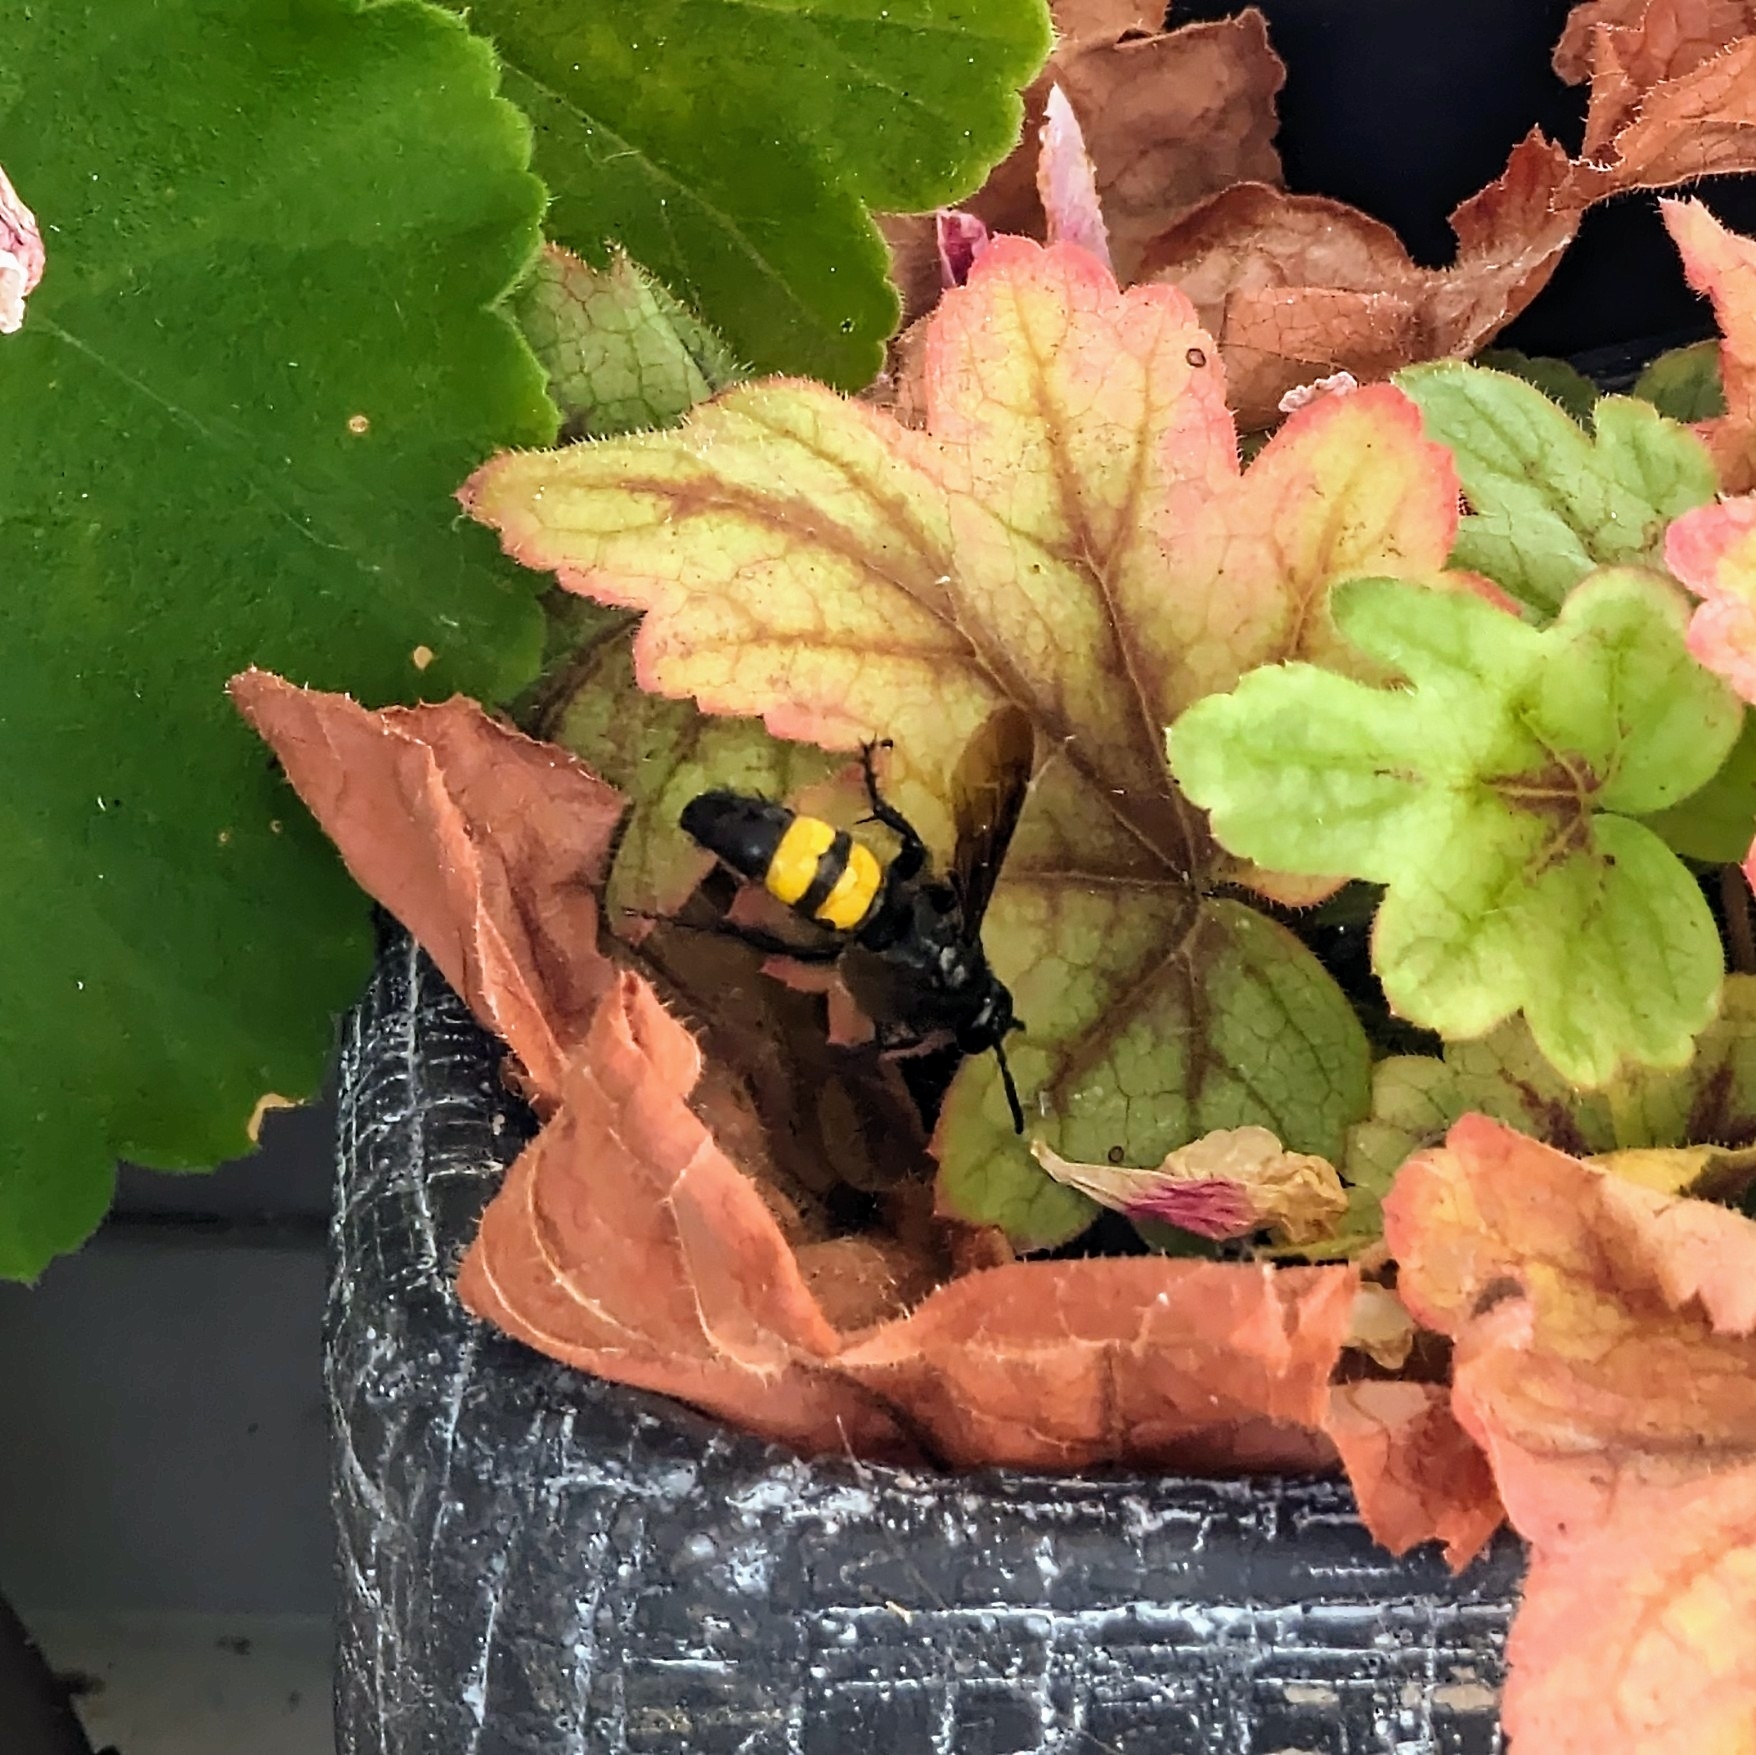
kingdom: Animalia
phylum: Arthropoda
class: Insecta
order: Hymenoptera
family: Scoliidae
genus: Scolia
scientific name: Scolia hirta
